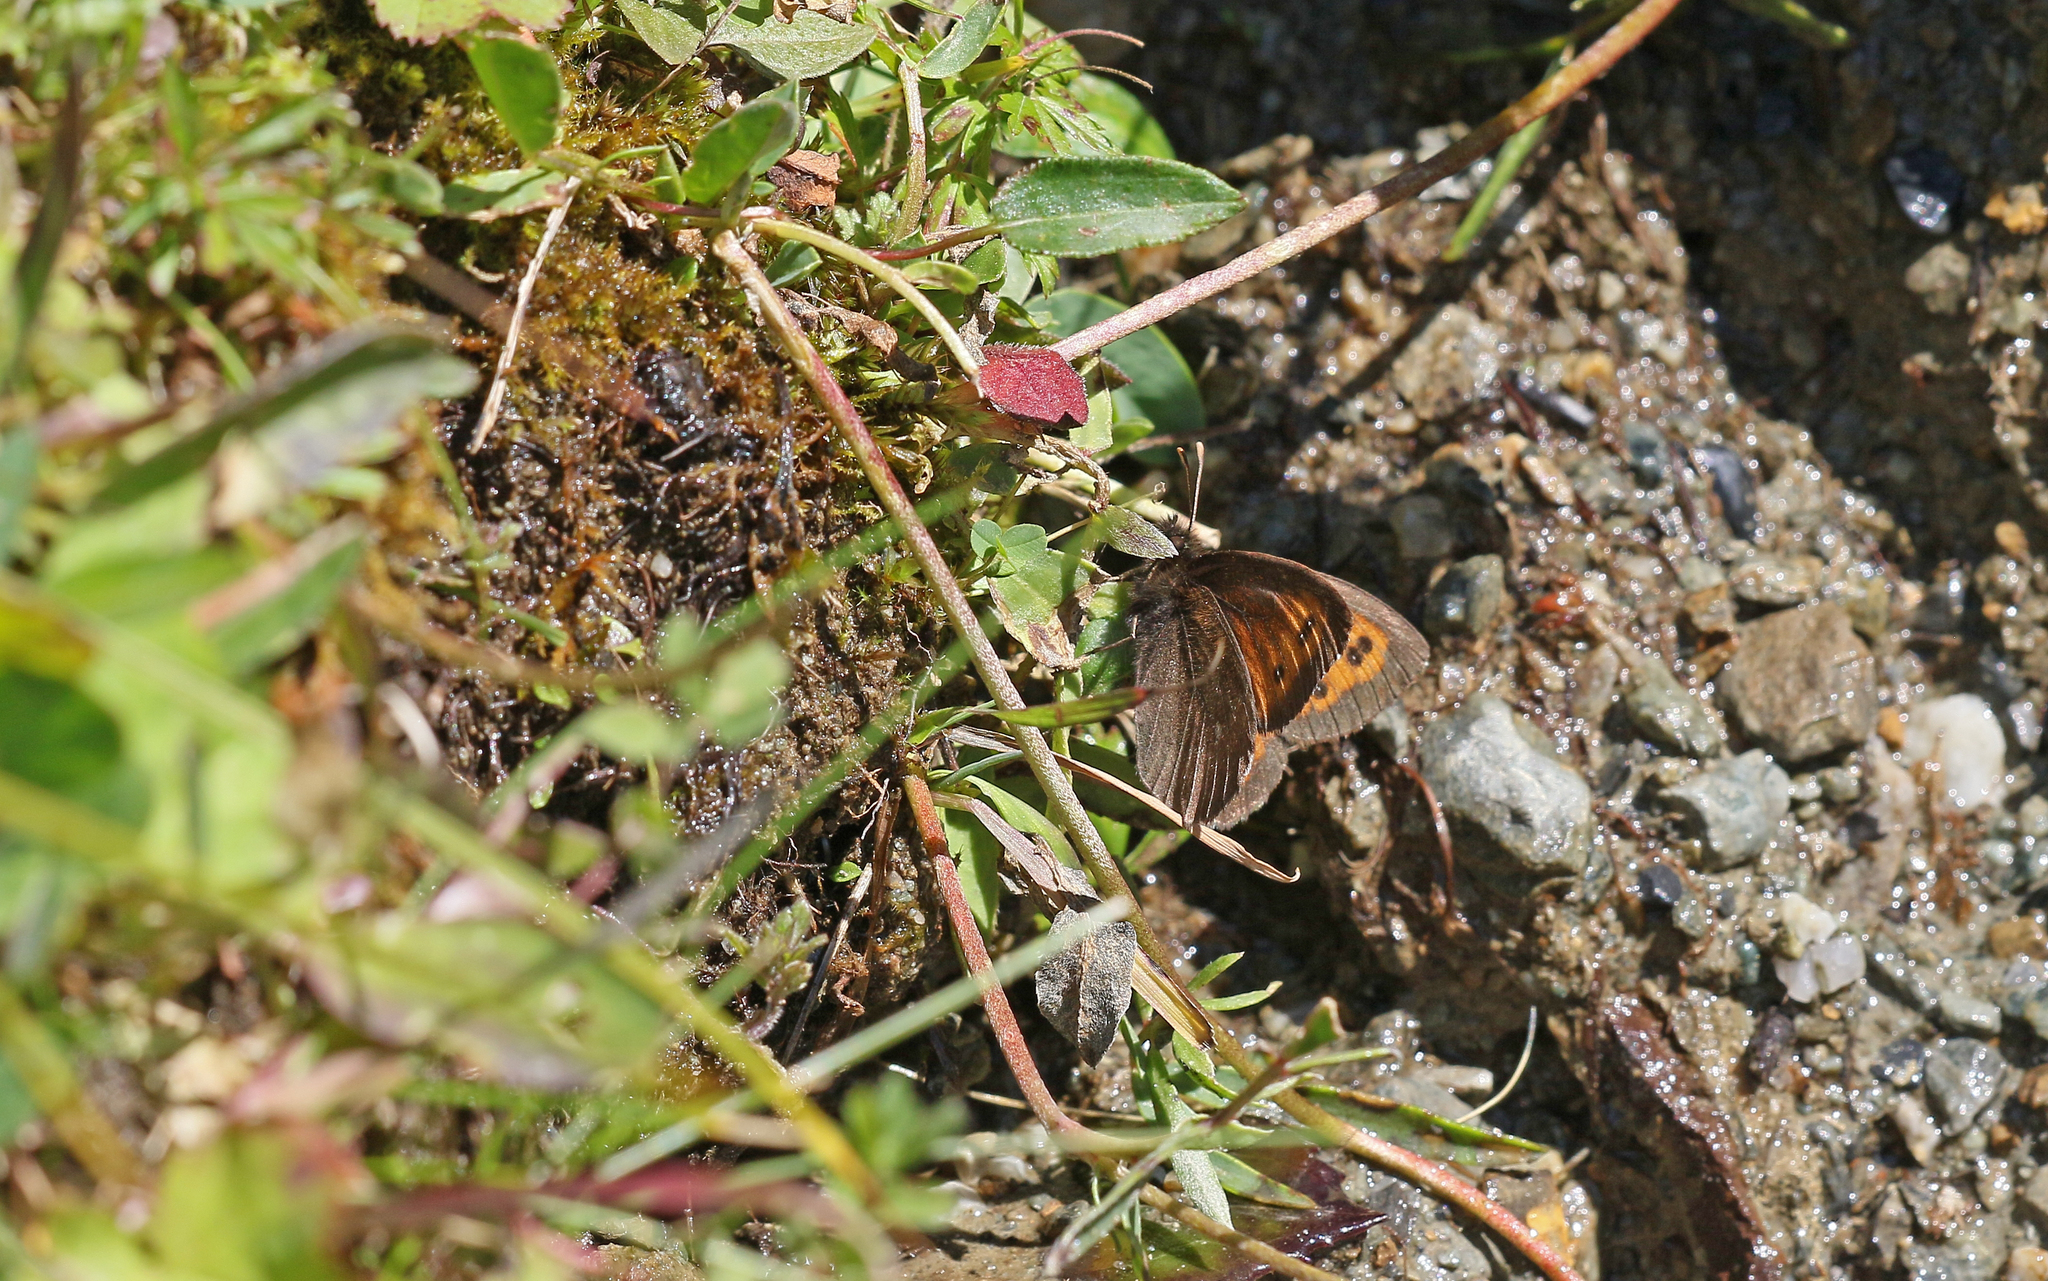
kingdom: Animalia
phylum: Arthropoda
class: Insecta
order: Lepidoptera
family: Nymphalidae
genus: Erebia
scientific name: Erebia euryale
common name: Large ringlet
